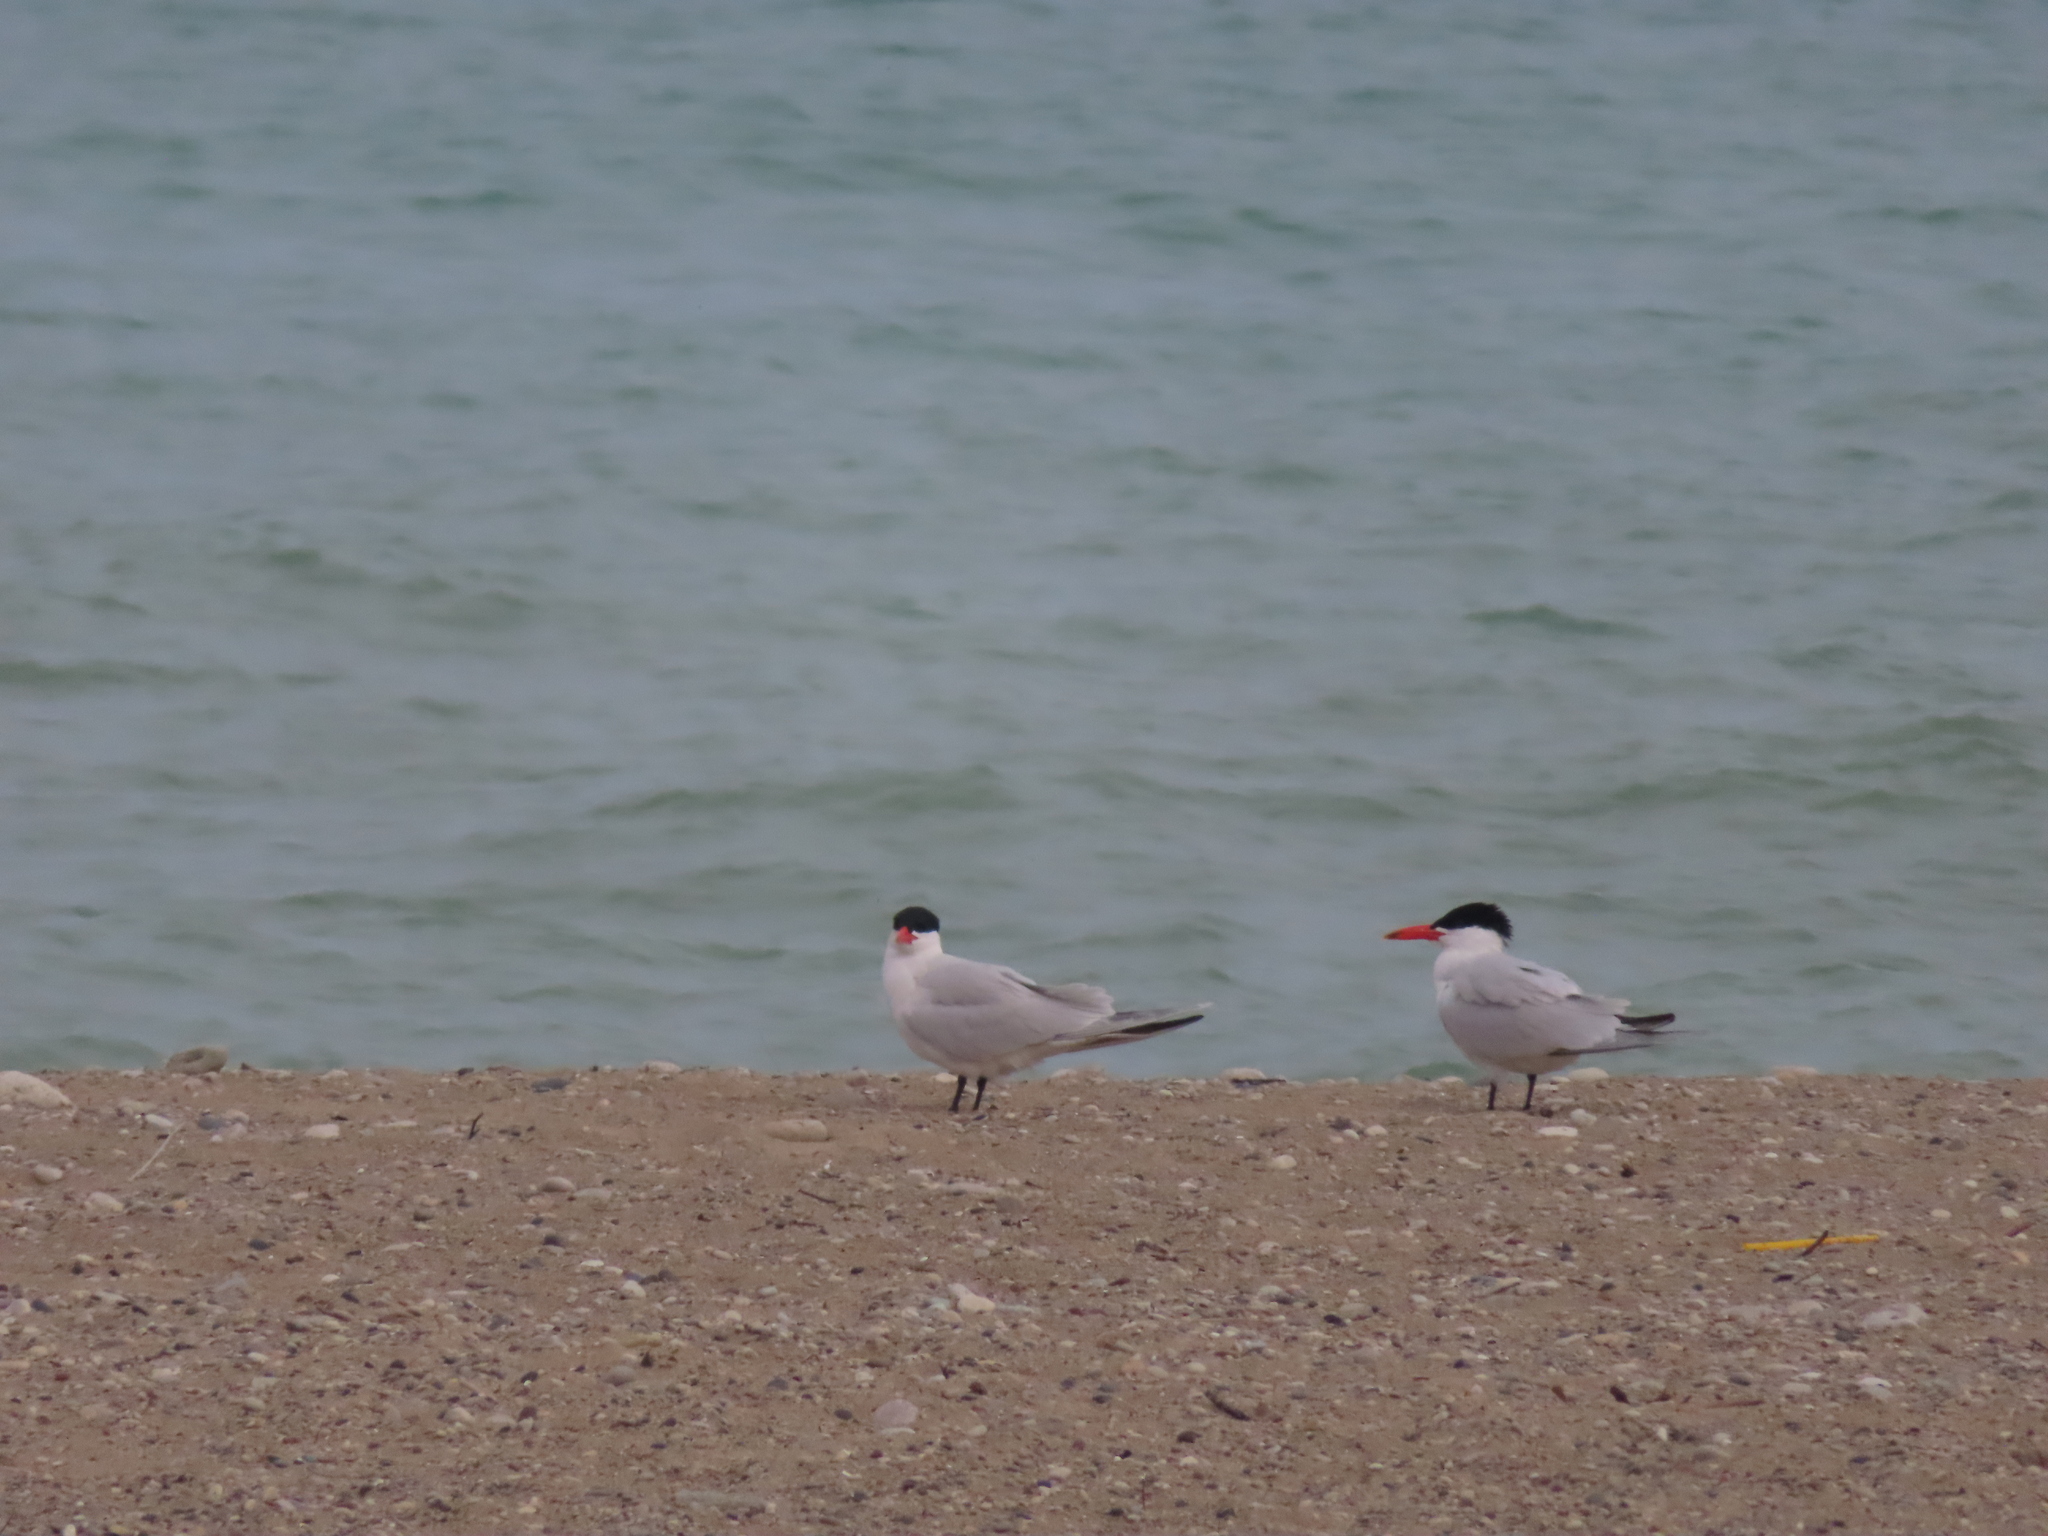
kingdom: Animalia
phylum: Chordata
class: Aves
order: Charadriiformes
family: Laridae
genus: Hydroprogne
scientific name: Hydroprogne caspia
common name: Caspian tern
